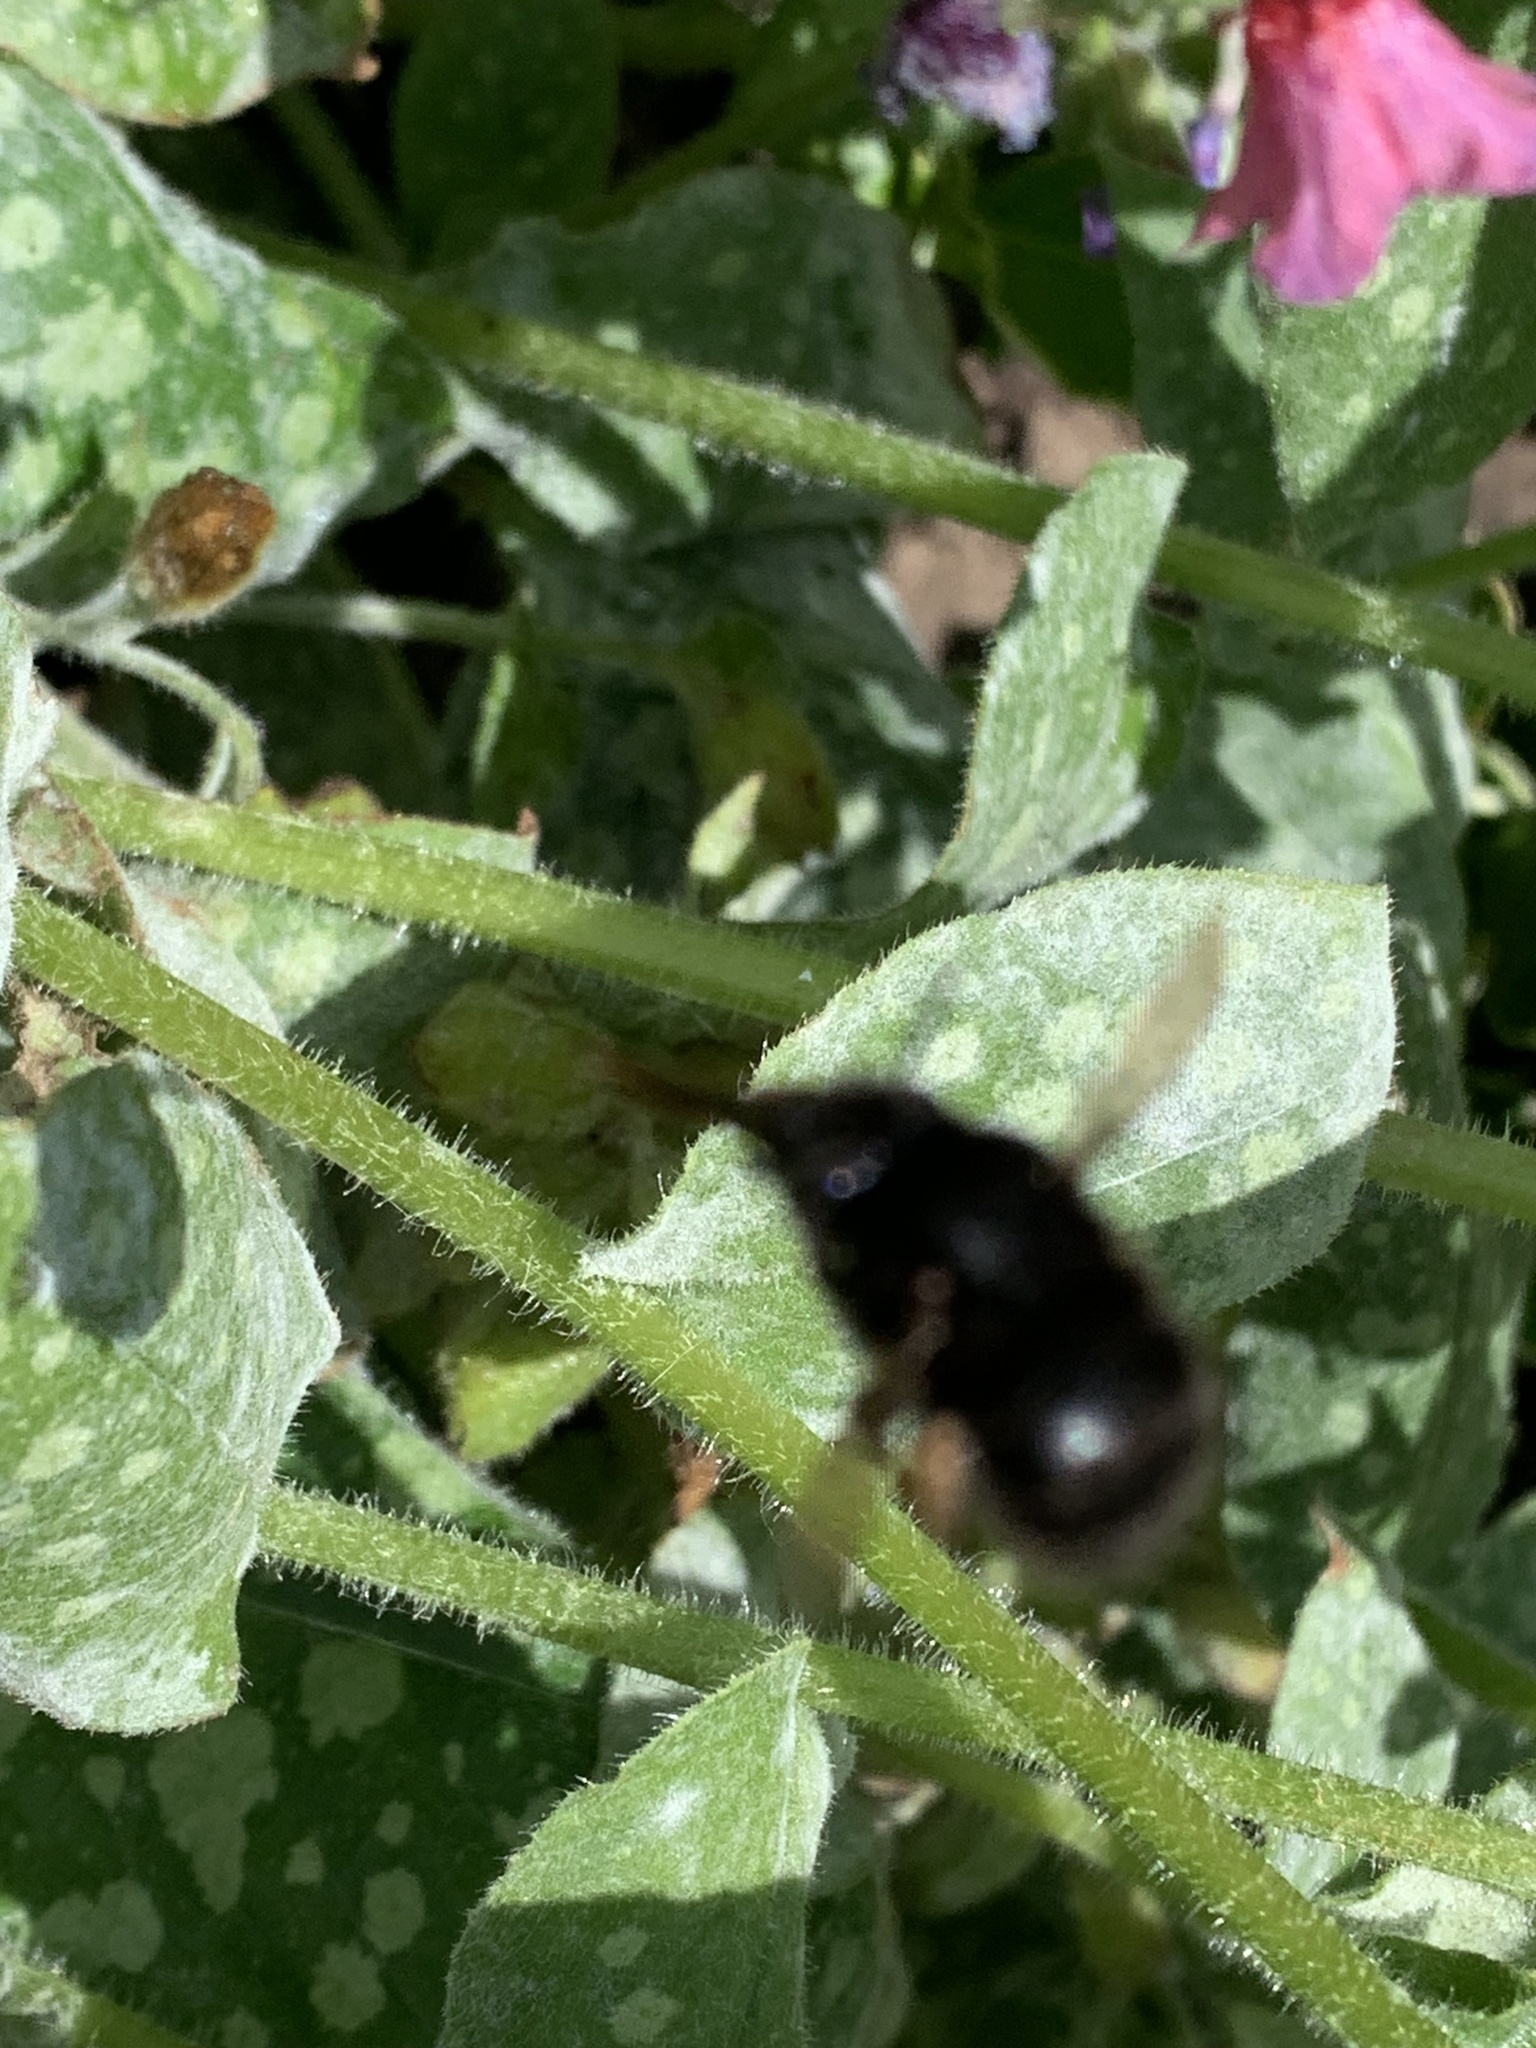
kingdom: Animalia
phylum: Arthropoda
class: Insecta
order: Hymenoptera
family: Apidae
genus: Anthophora
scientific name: Anthophora plumipes
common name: Hairy-footed flower bee
